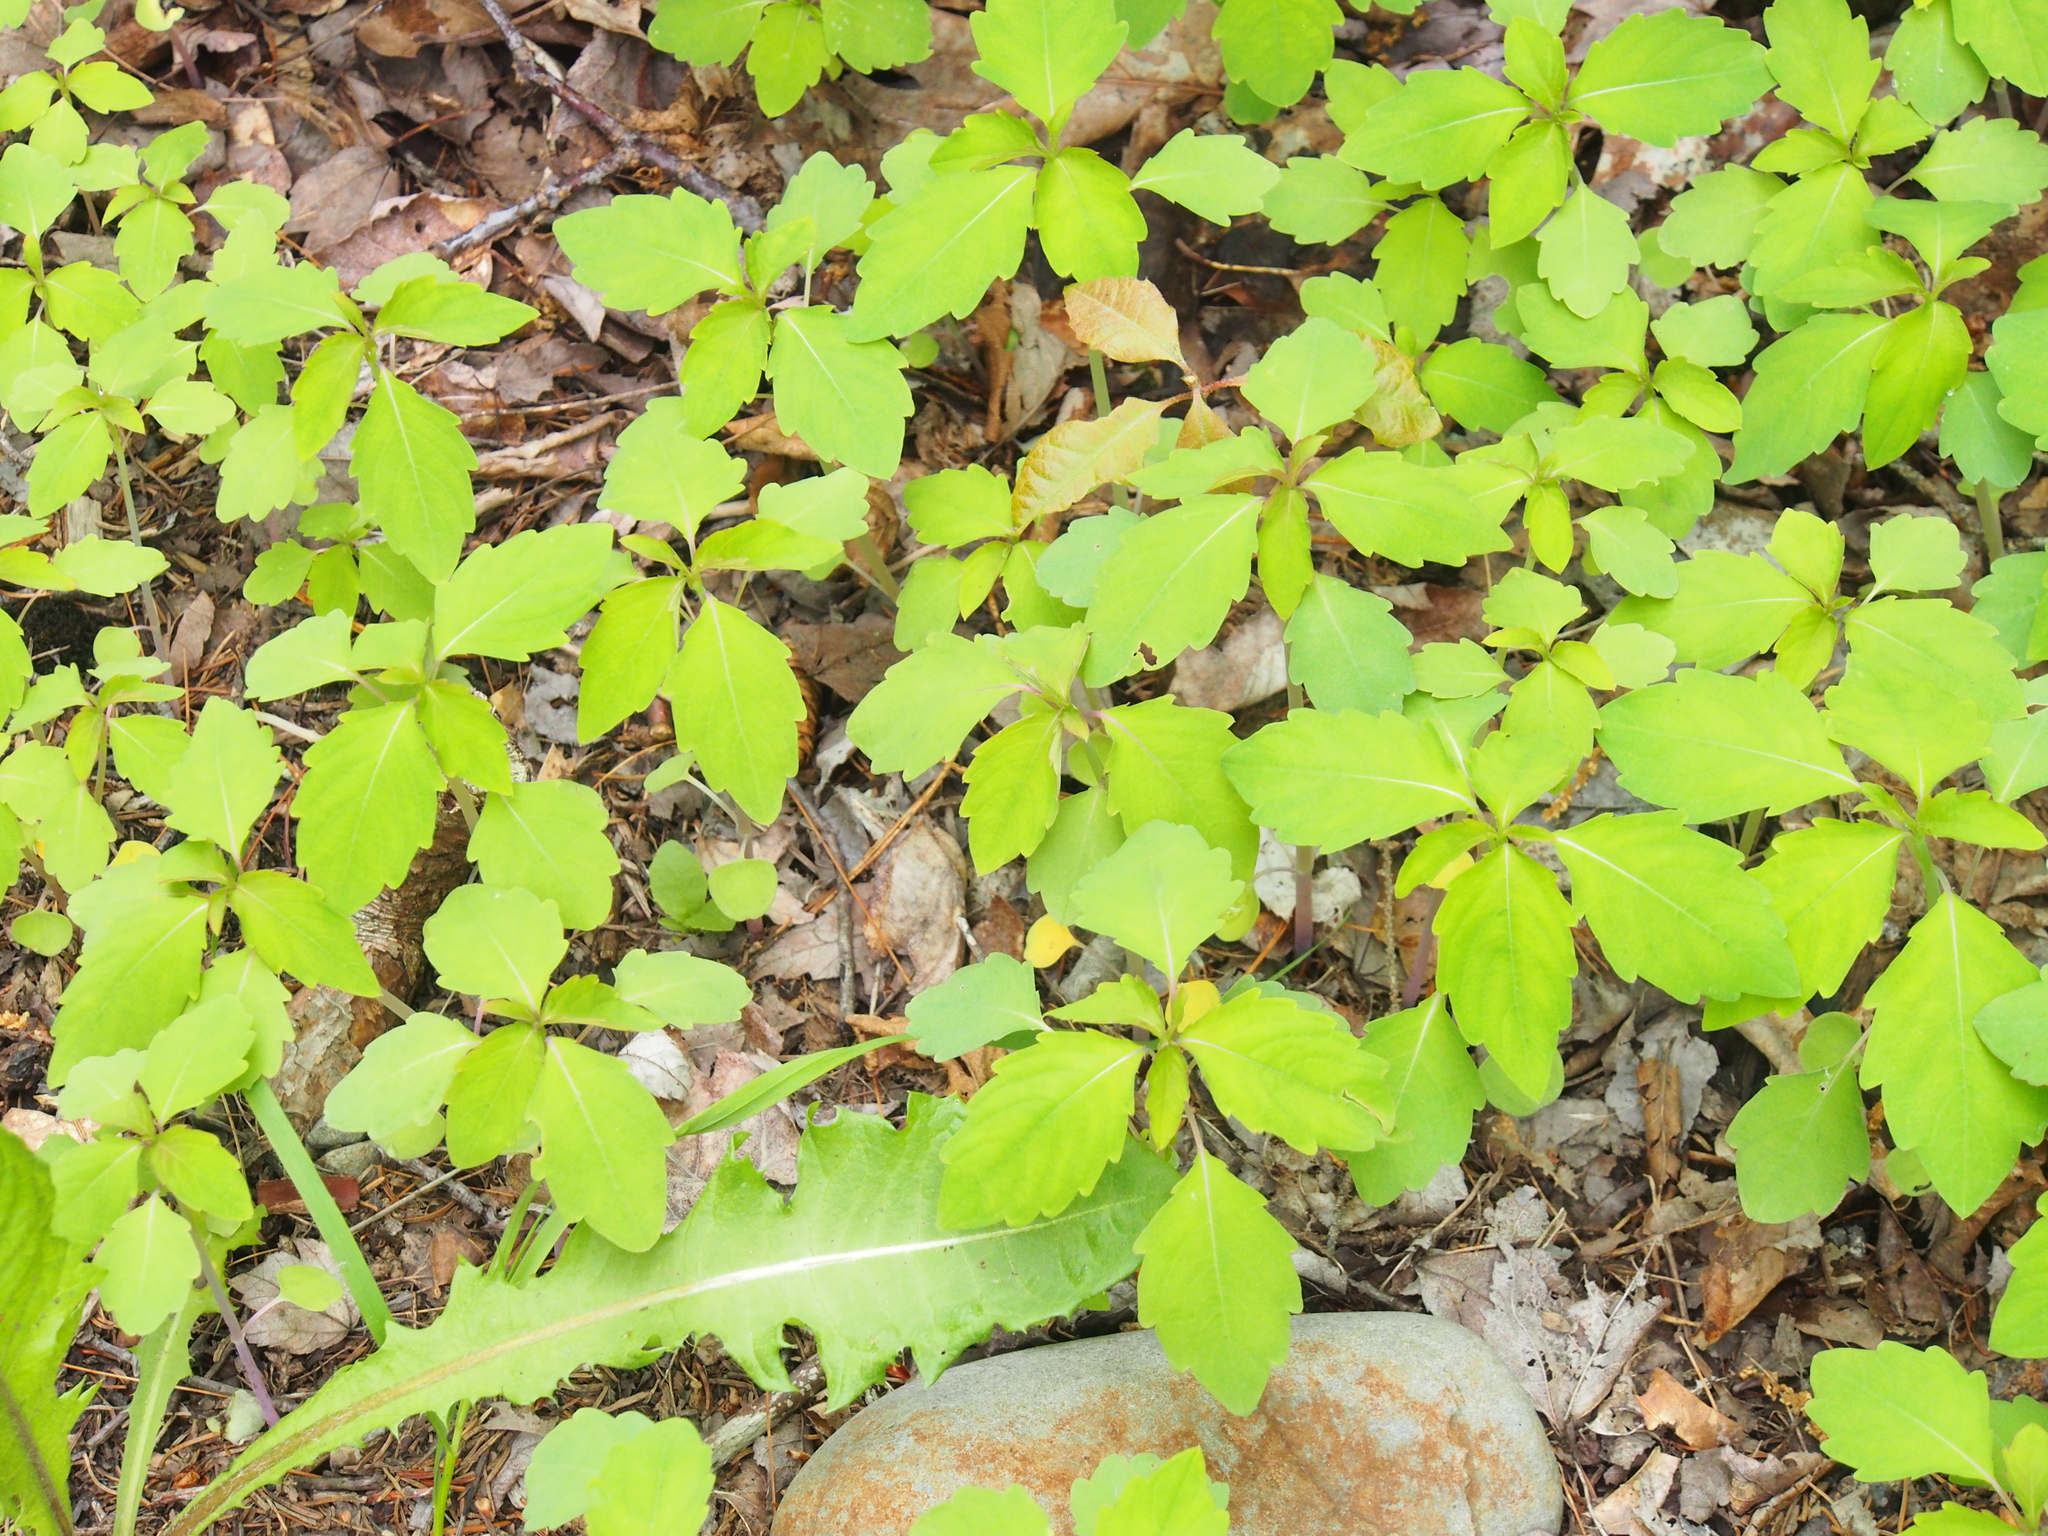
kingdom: Plantae
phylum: Tracheophyta
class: Magnoliopsida
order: Ericales
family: Balsaminaceae
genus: Impatiens
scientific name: Impatiens capensis
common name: Orange balsam
